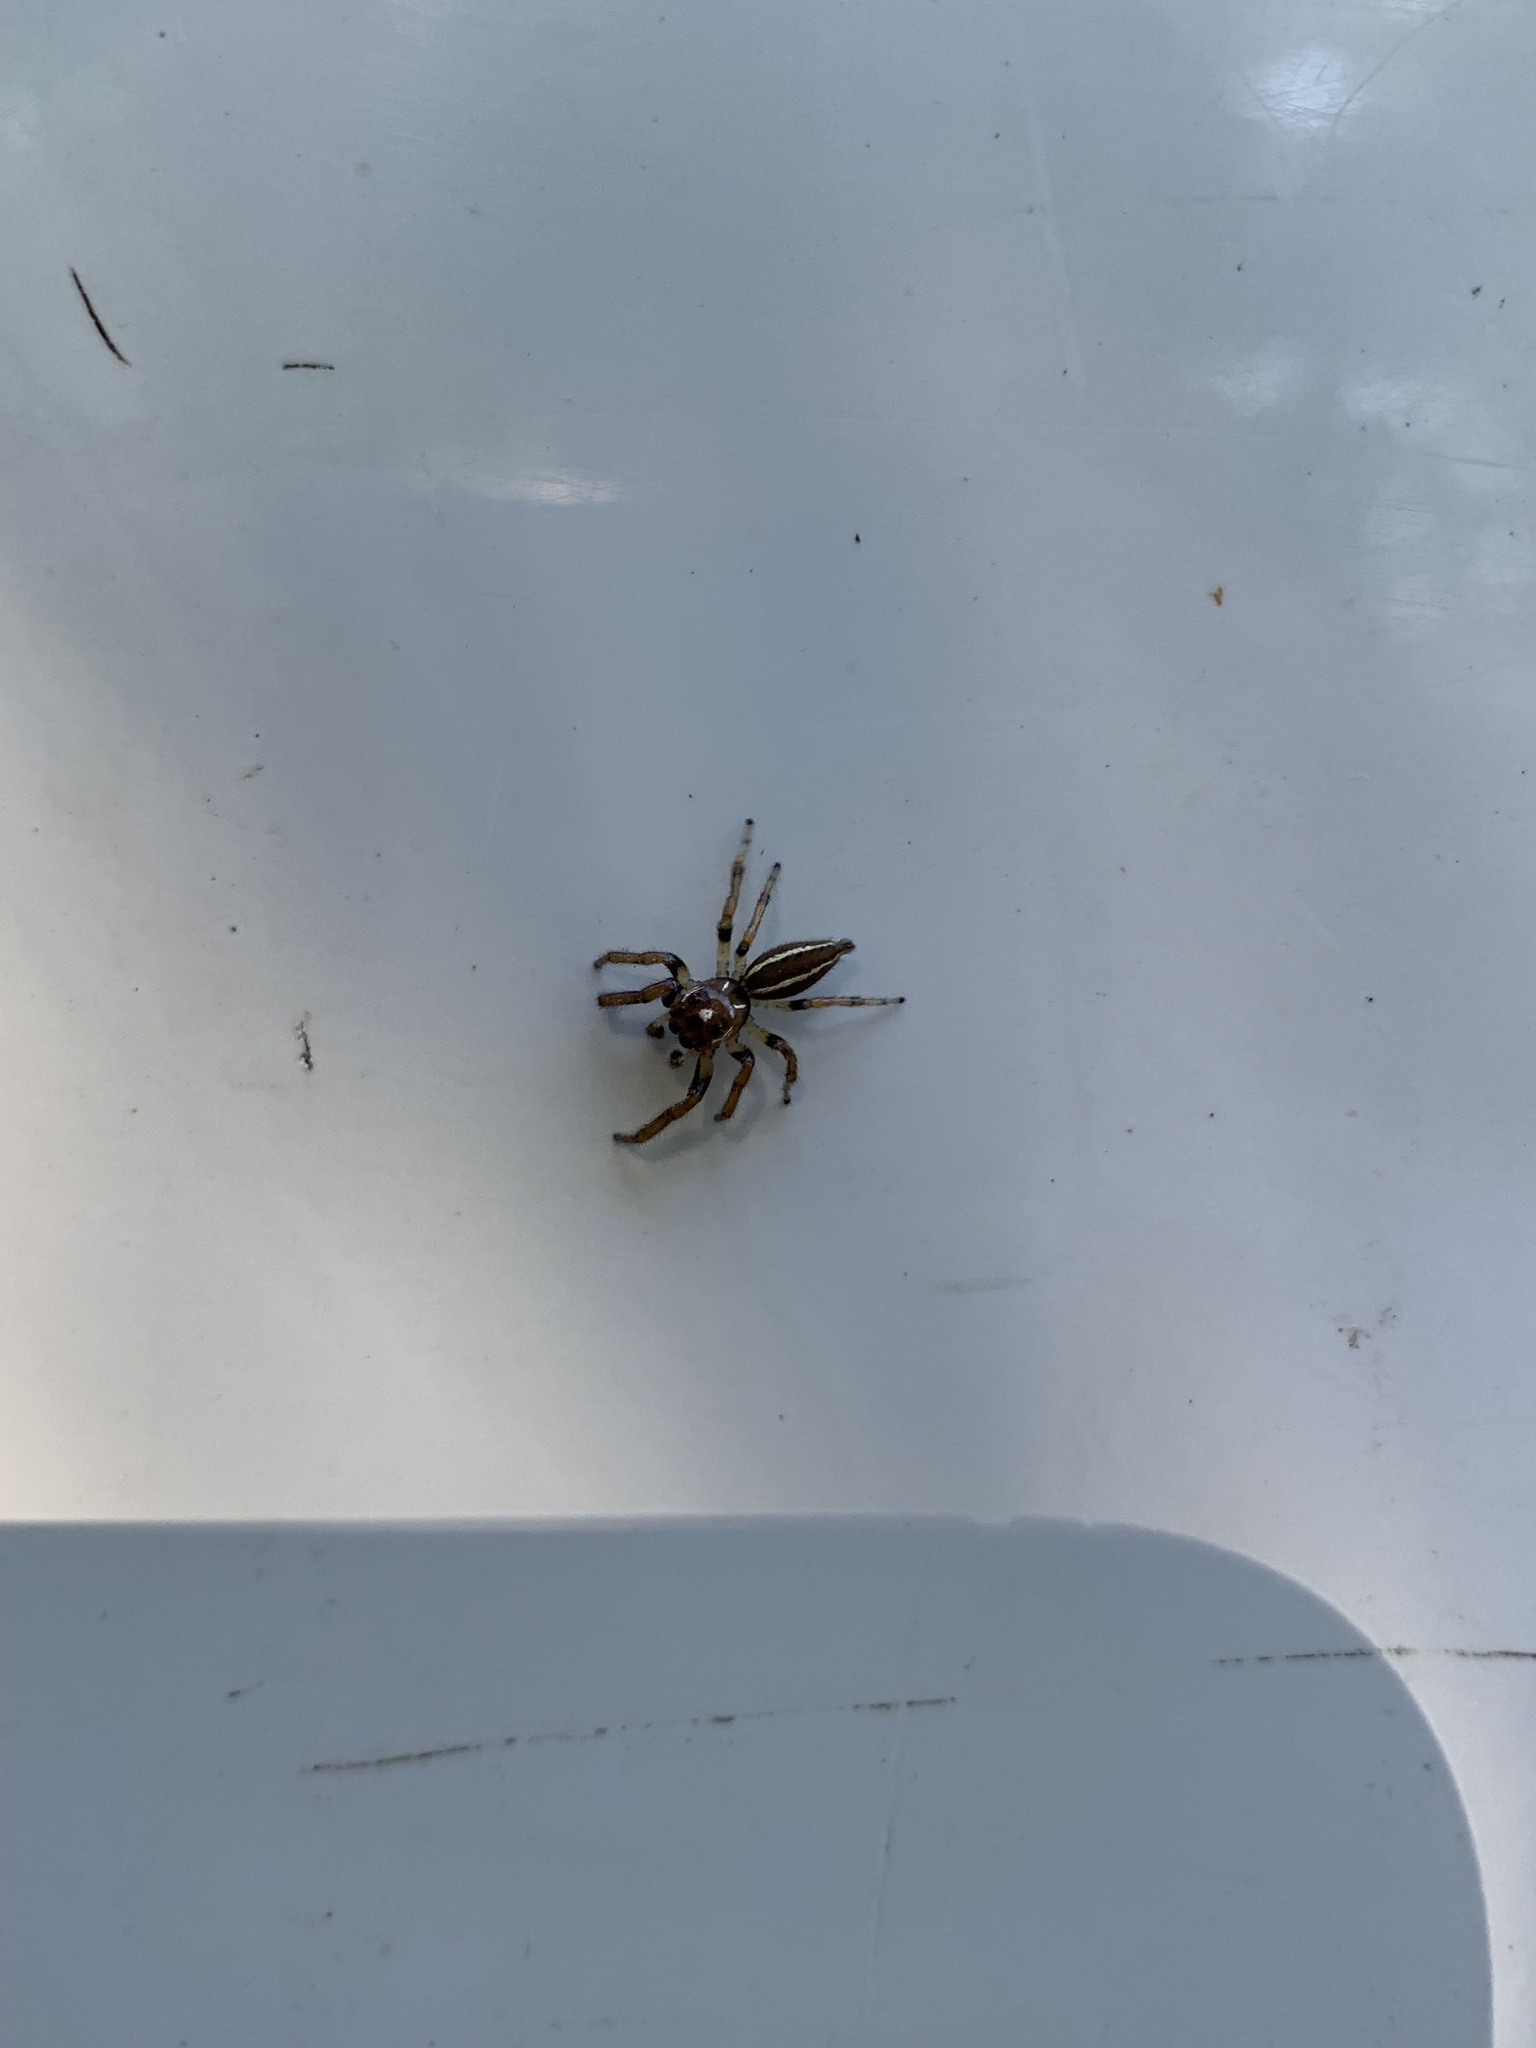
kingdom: Animalia
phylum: Arthropoda
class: Arachnida
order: Araneae
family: Salticidae
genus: Colonus
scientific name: Colonus sylvanus
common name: Jumping spiders
